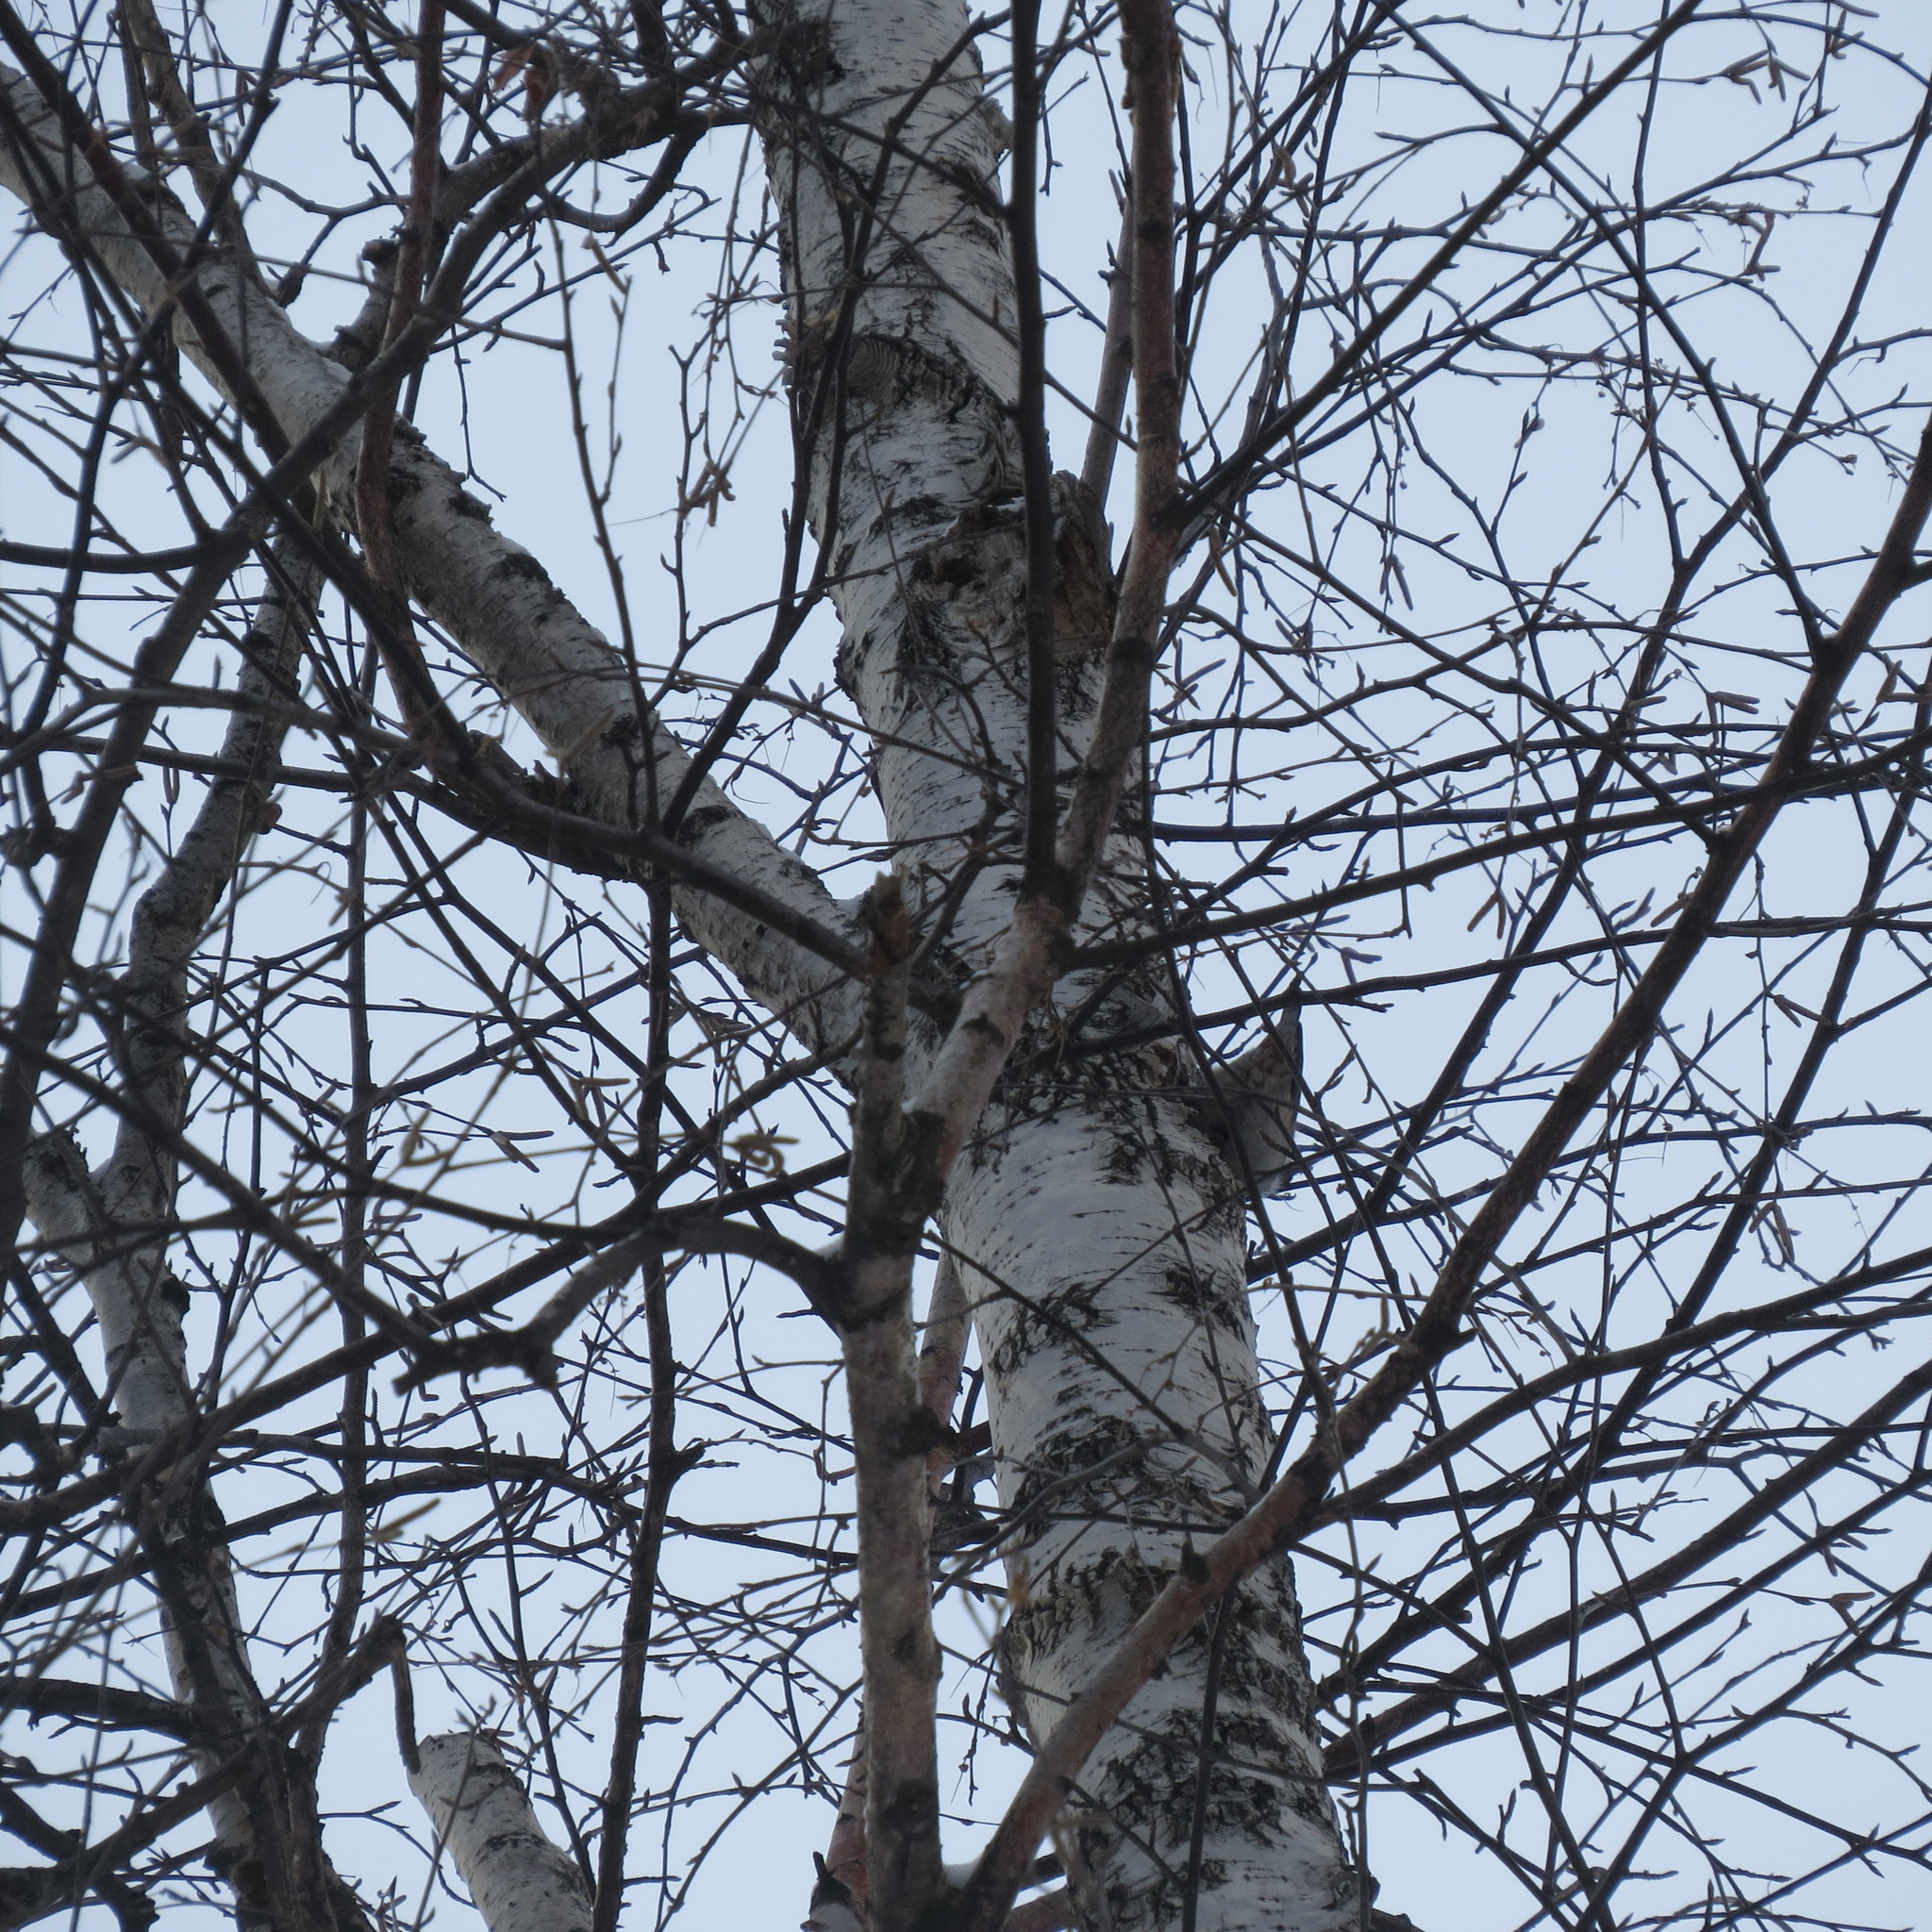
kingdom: Animalia
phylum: Chordata
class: Aves
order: Passeriformes
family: Sittidae
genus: Sitta
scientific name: Sitta europaea
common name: Eurasian nuthatch
